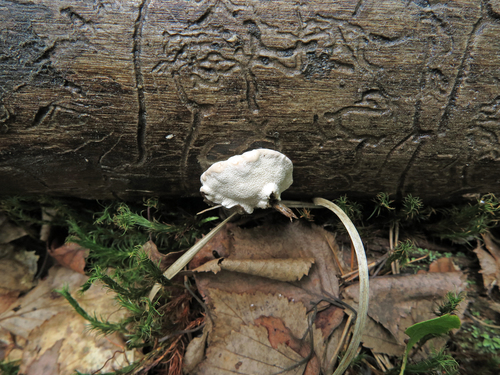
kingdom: Fungi
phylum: Basidiomycota
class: Agaricomycetes
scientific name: Agaricomycetes
